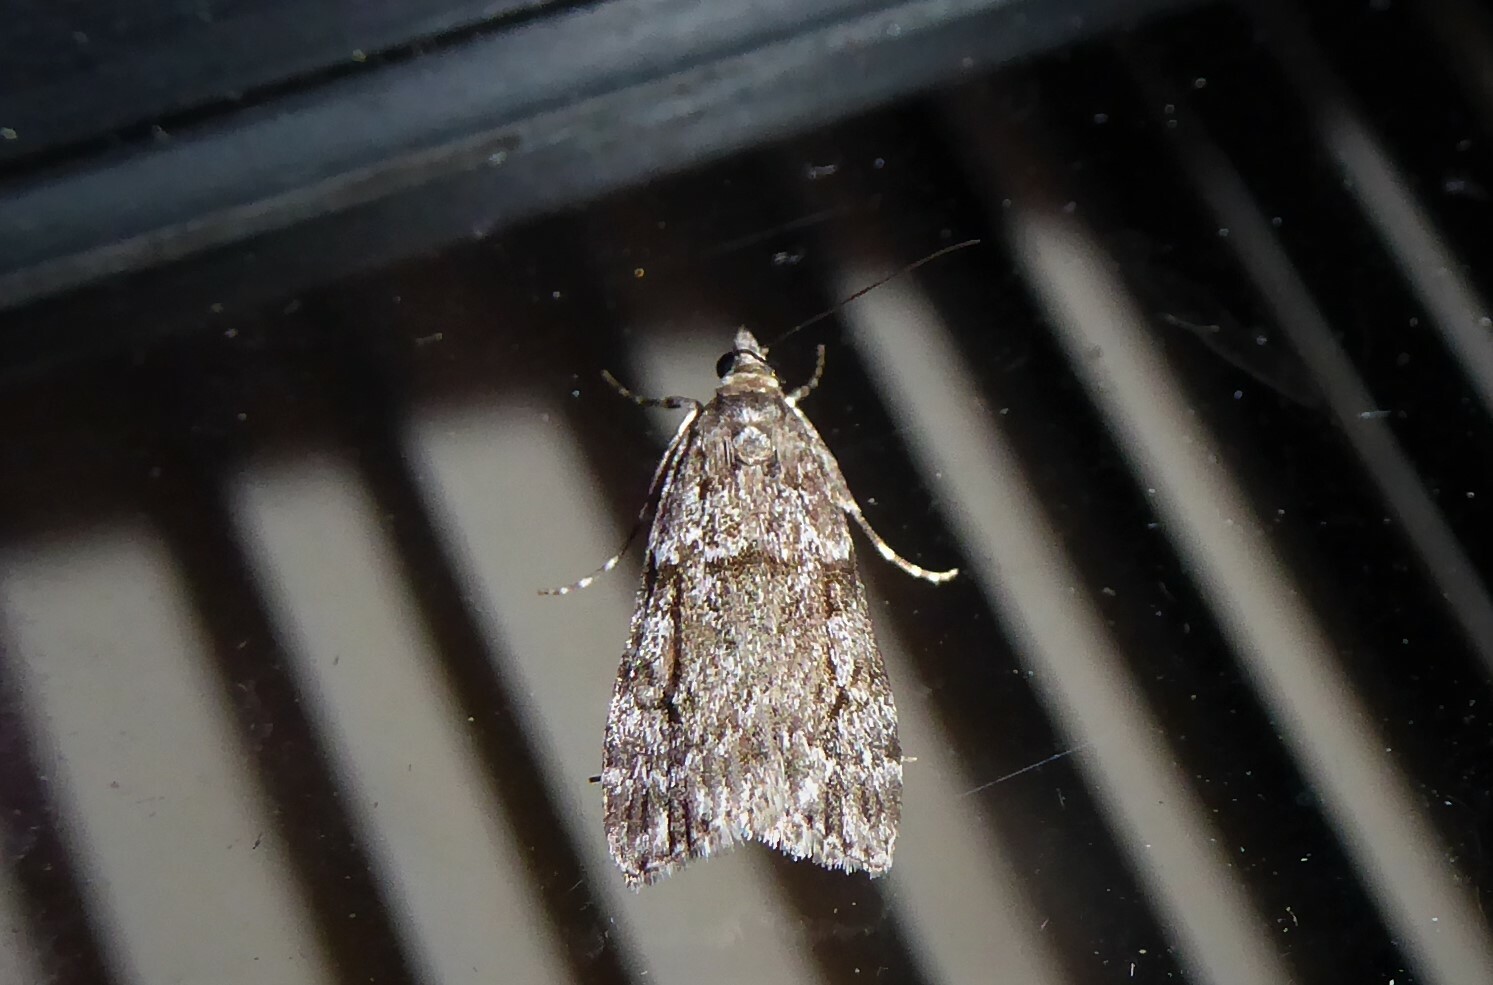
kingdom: Animalia
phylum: Arthropoda
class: Insecta
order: Lepidoptera
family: Crambidae
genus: Eudonia
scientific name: Eudonia cymatias
